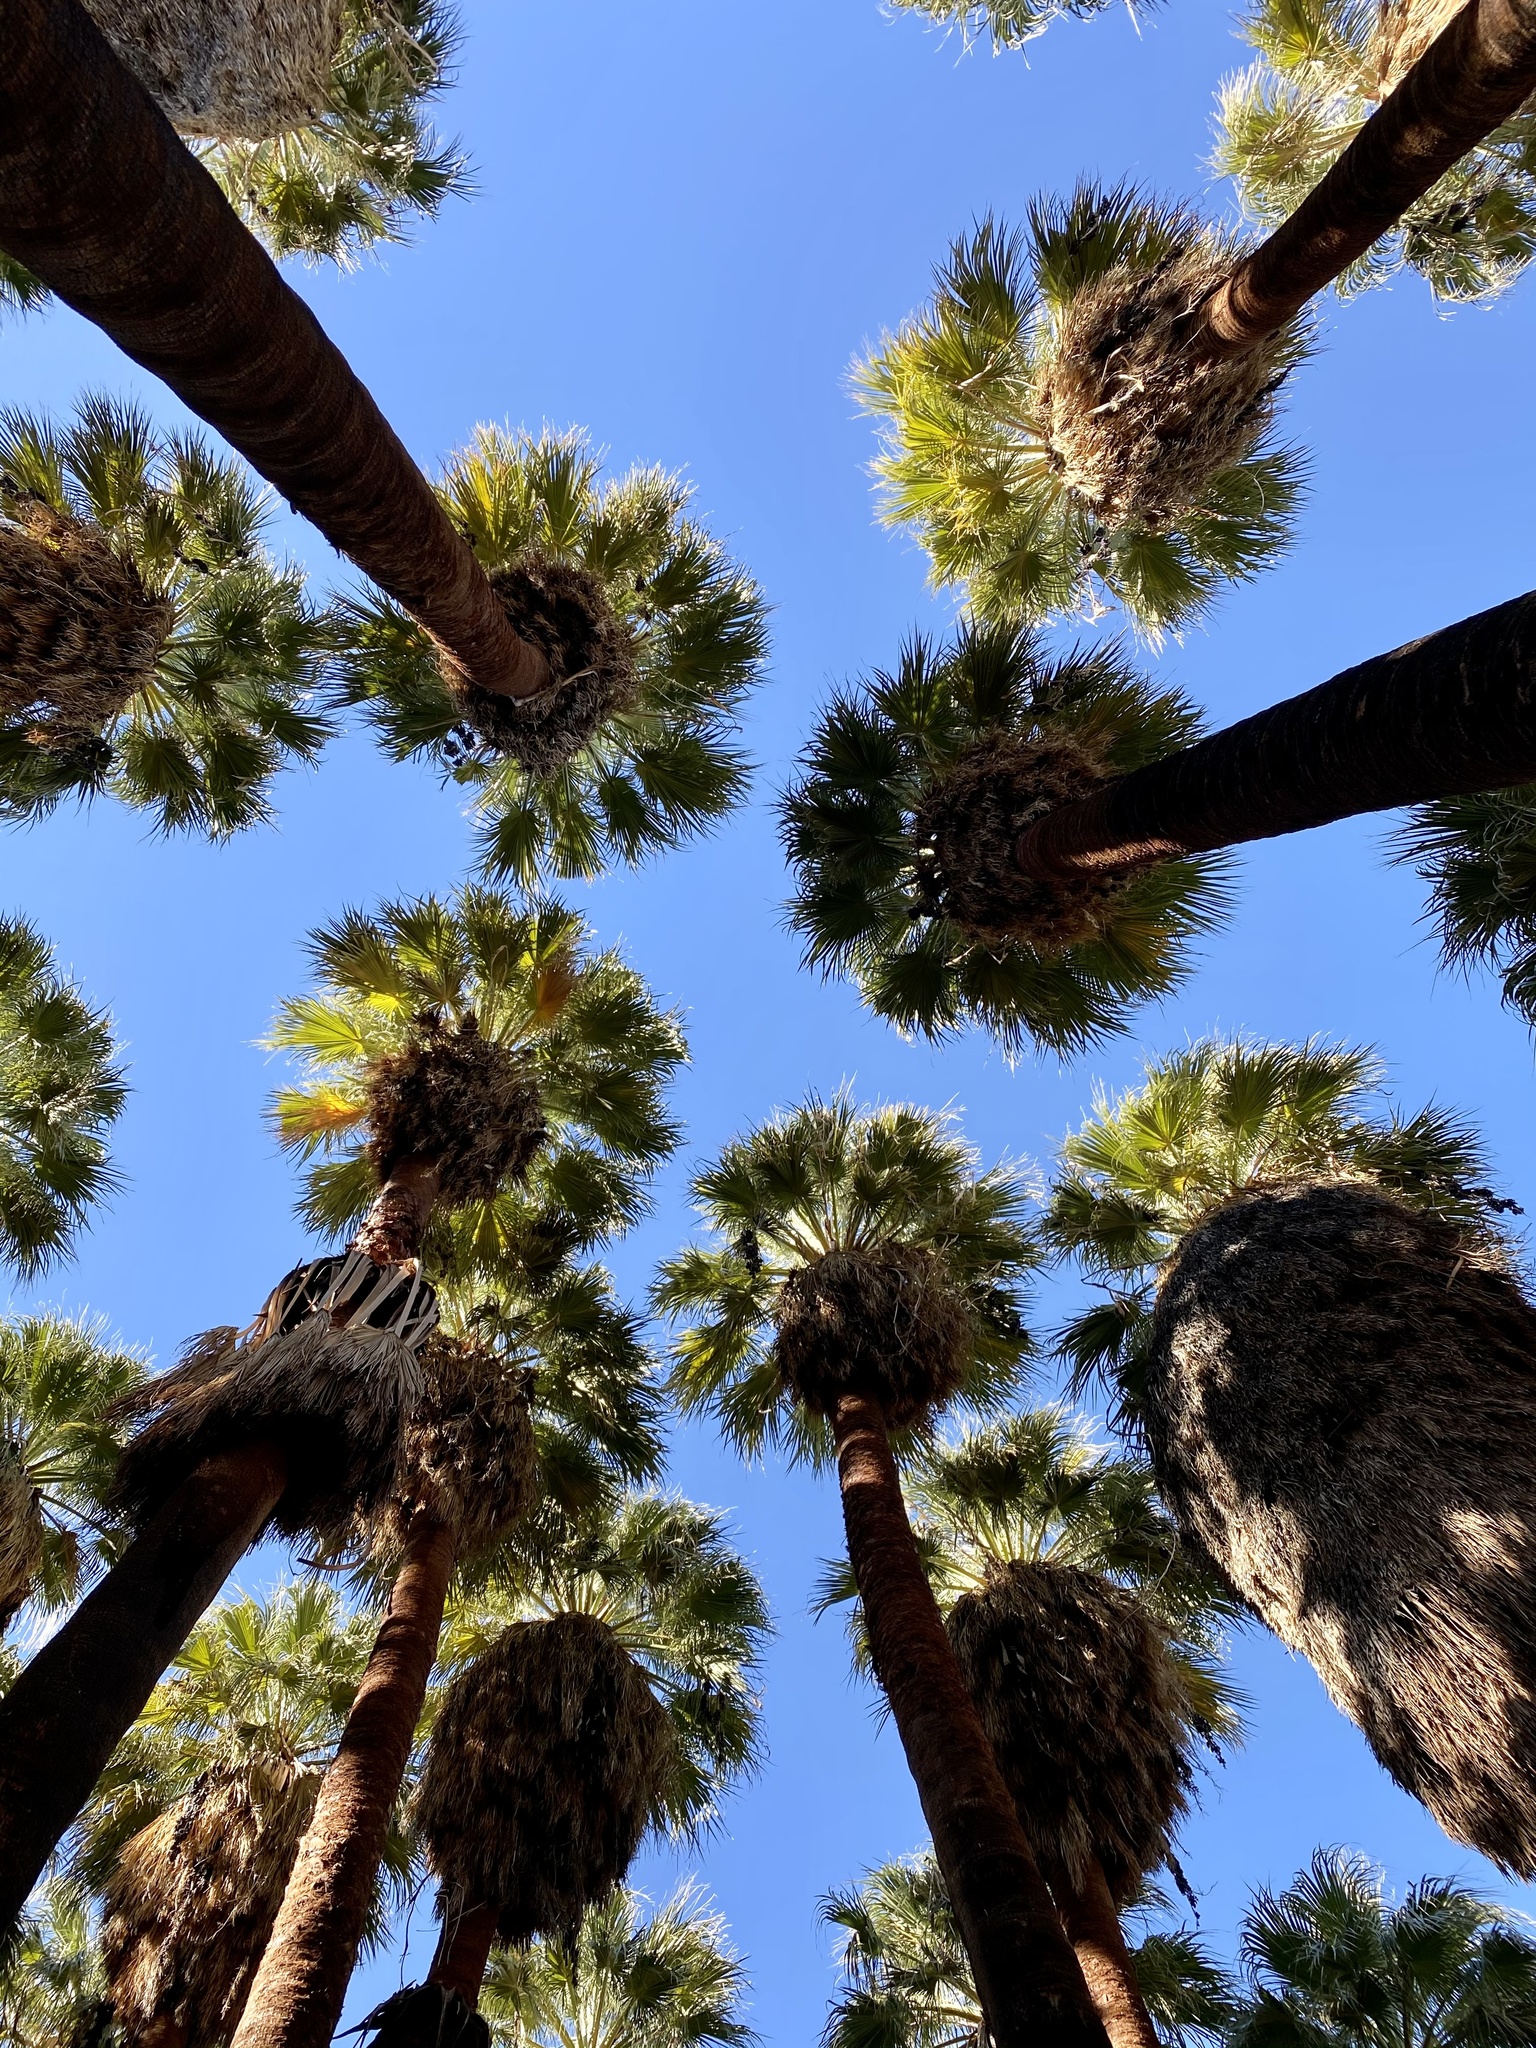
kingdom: Plantae
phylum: Tracheophyta
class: Liliopsida
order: Arecales
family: Arecaceae
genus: Washingtonia
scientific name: Washingtonia filifera
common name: California fan palm
